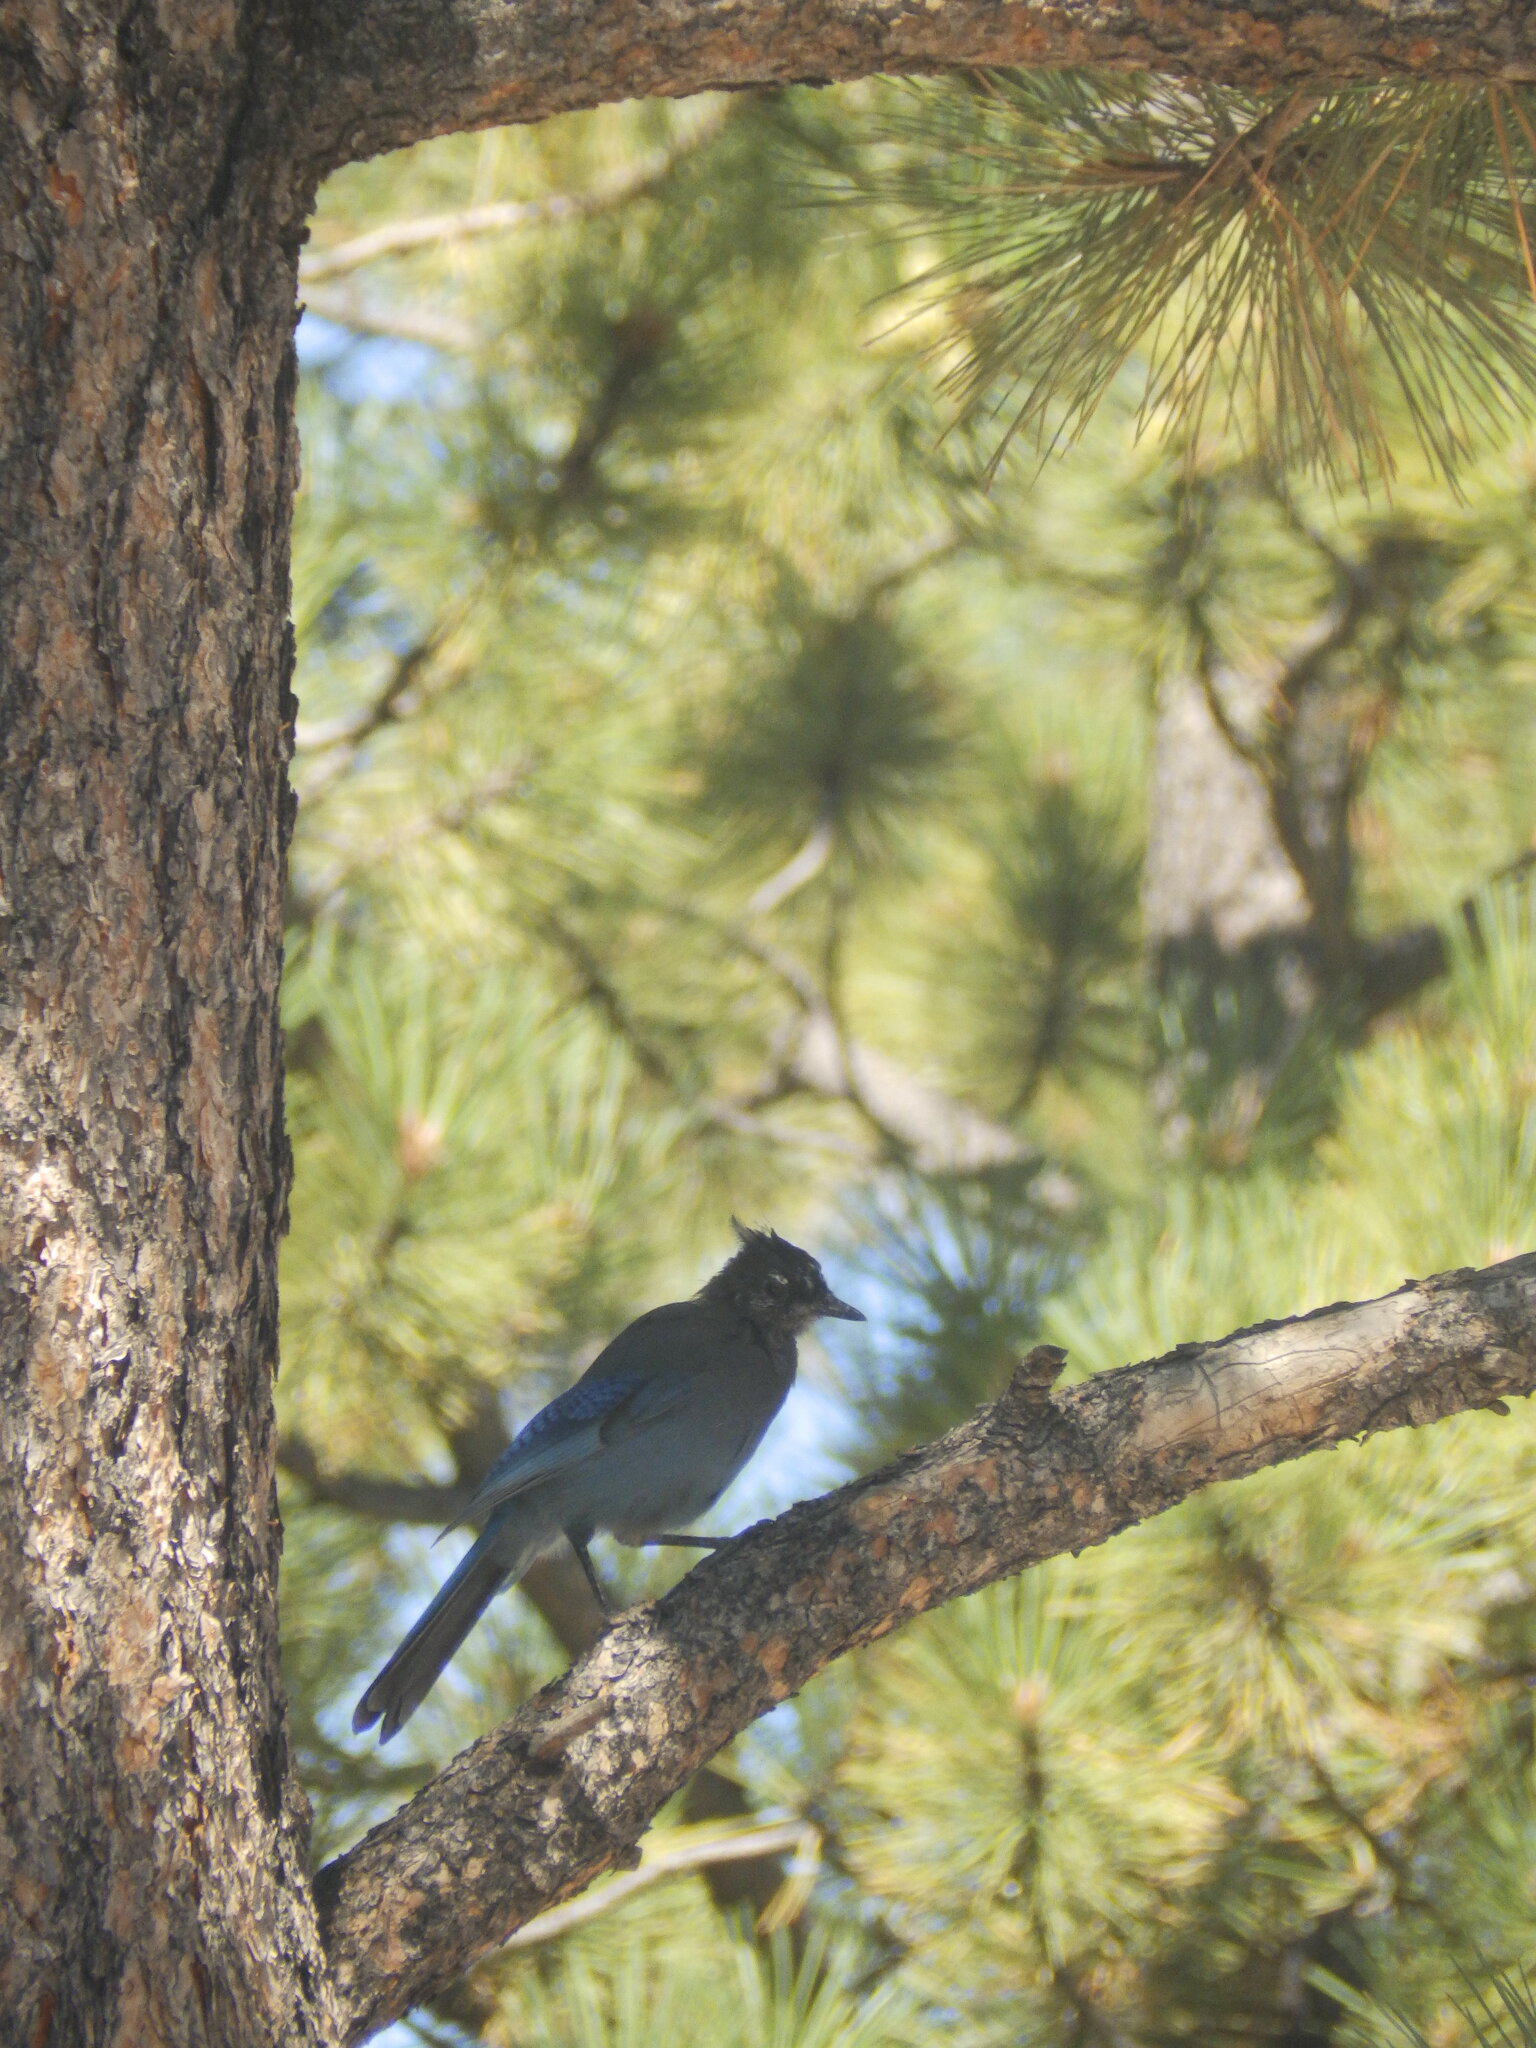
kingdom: Animalia
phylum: Chordata
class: Aves
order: Passeriformes
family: Corvidae
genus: Cyanocitta
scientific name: Cyanocitta stelleri
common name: Steller's jay
